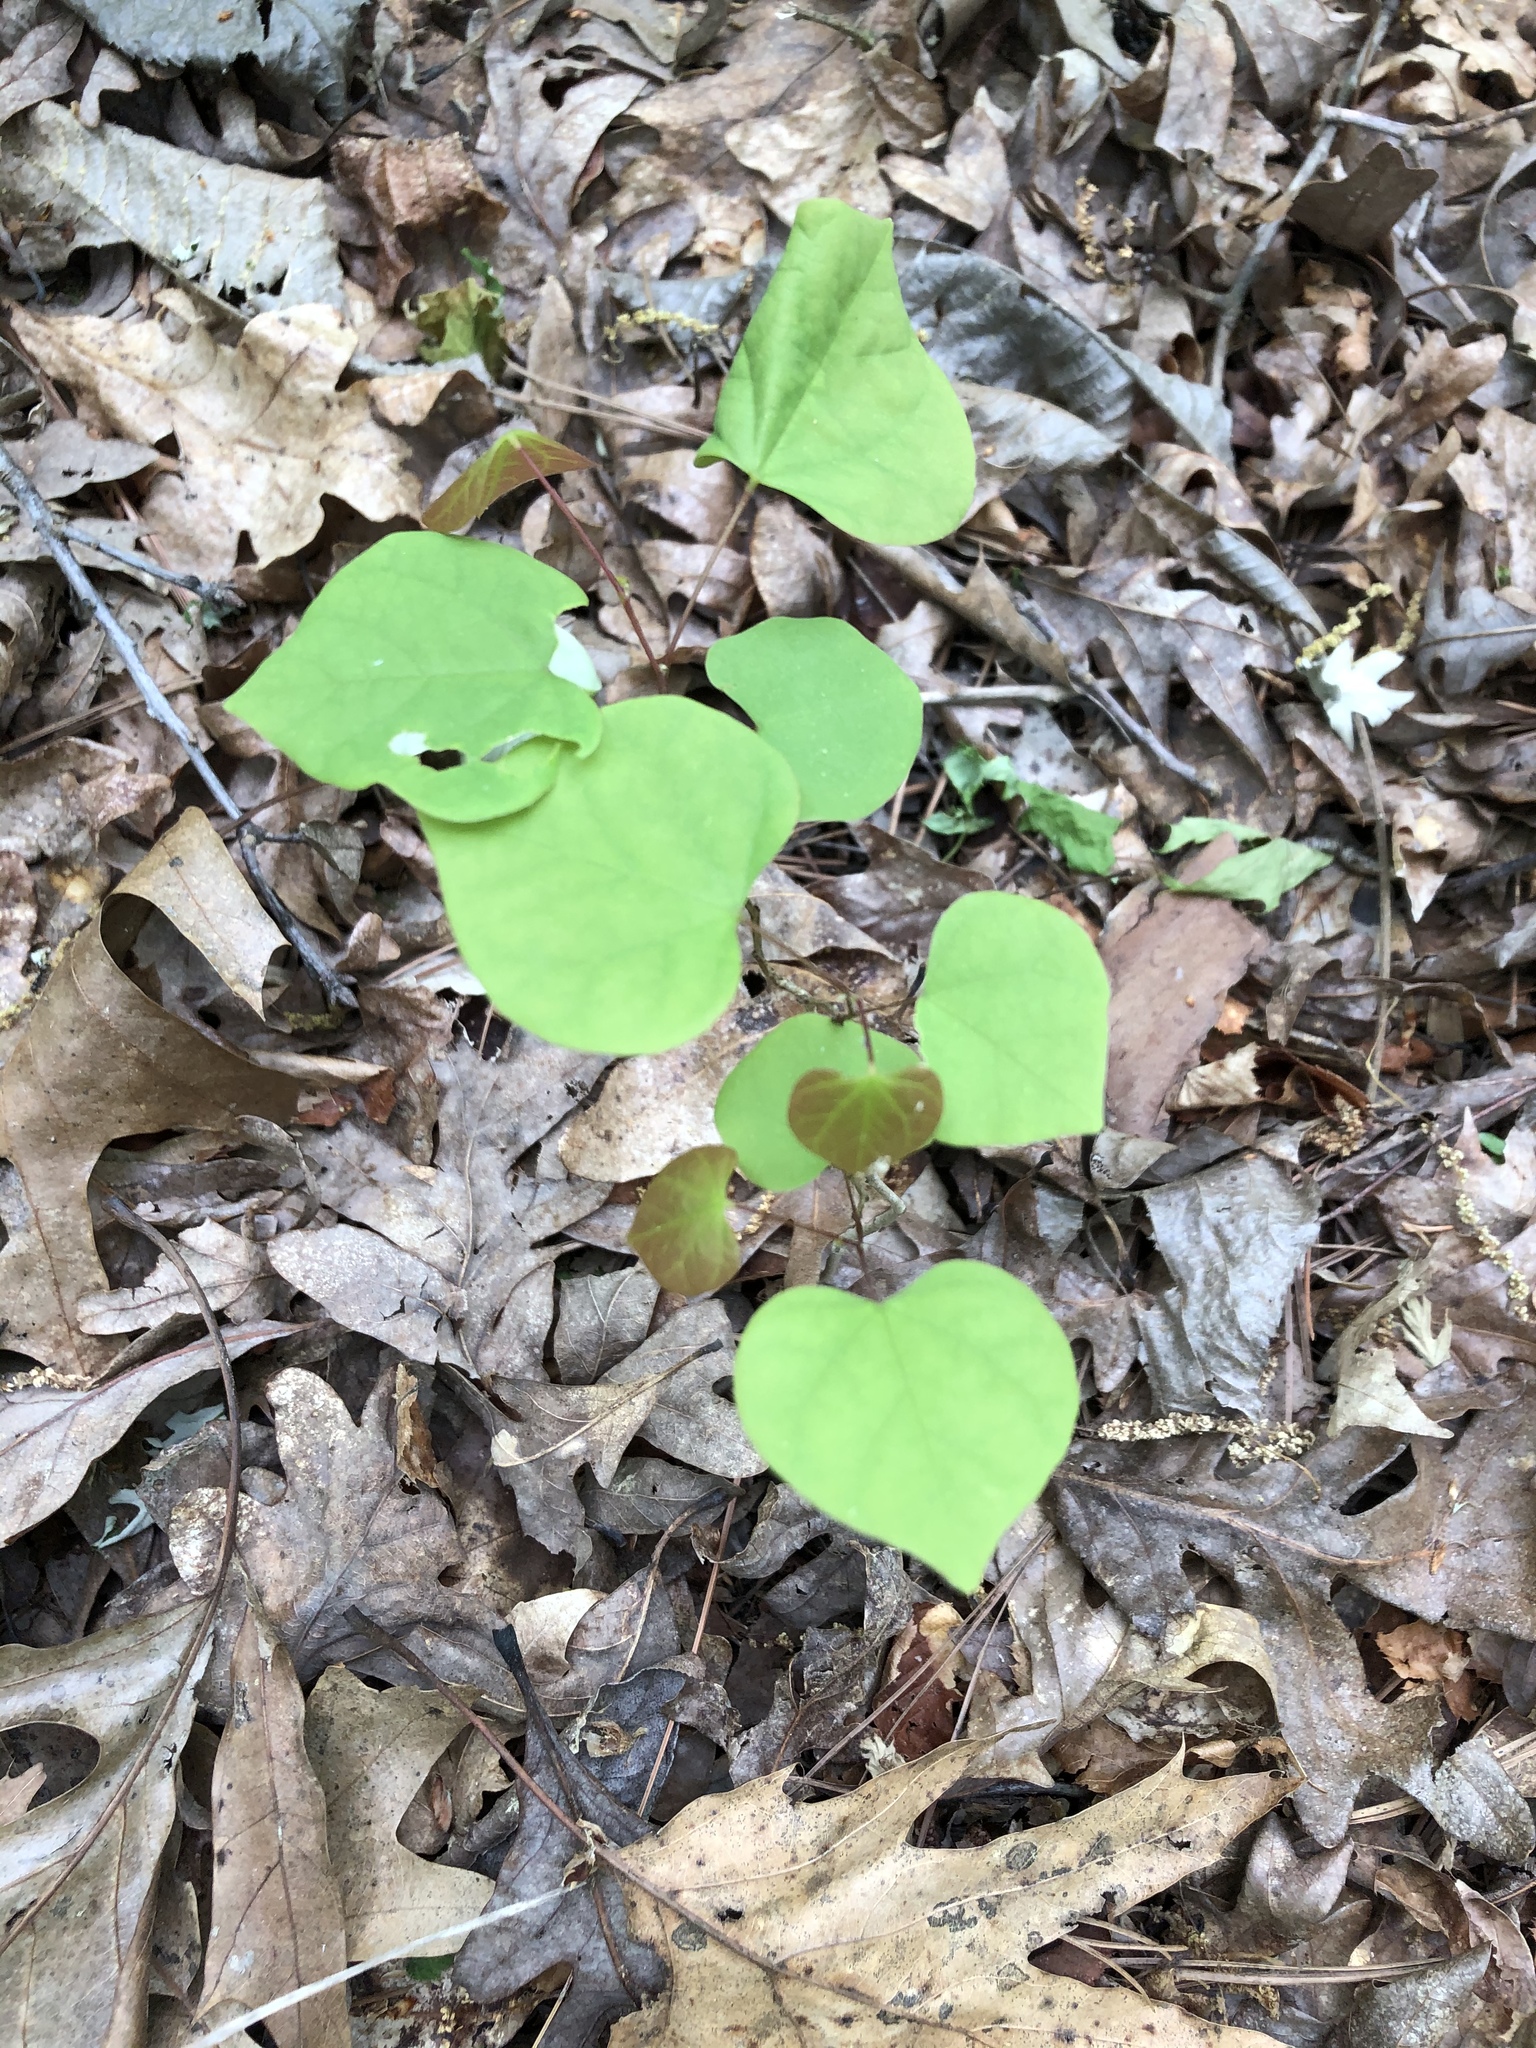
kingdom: Plantae
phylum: Tracheophyta
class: Magnoliopsida
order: Fabales
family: Fabaceae
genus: Cercis
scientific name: Cercis canadensis
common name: Eastern redbud
